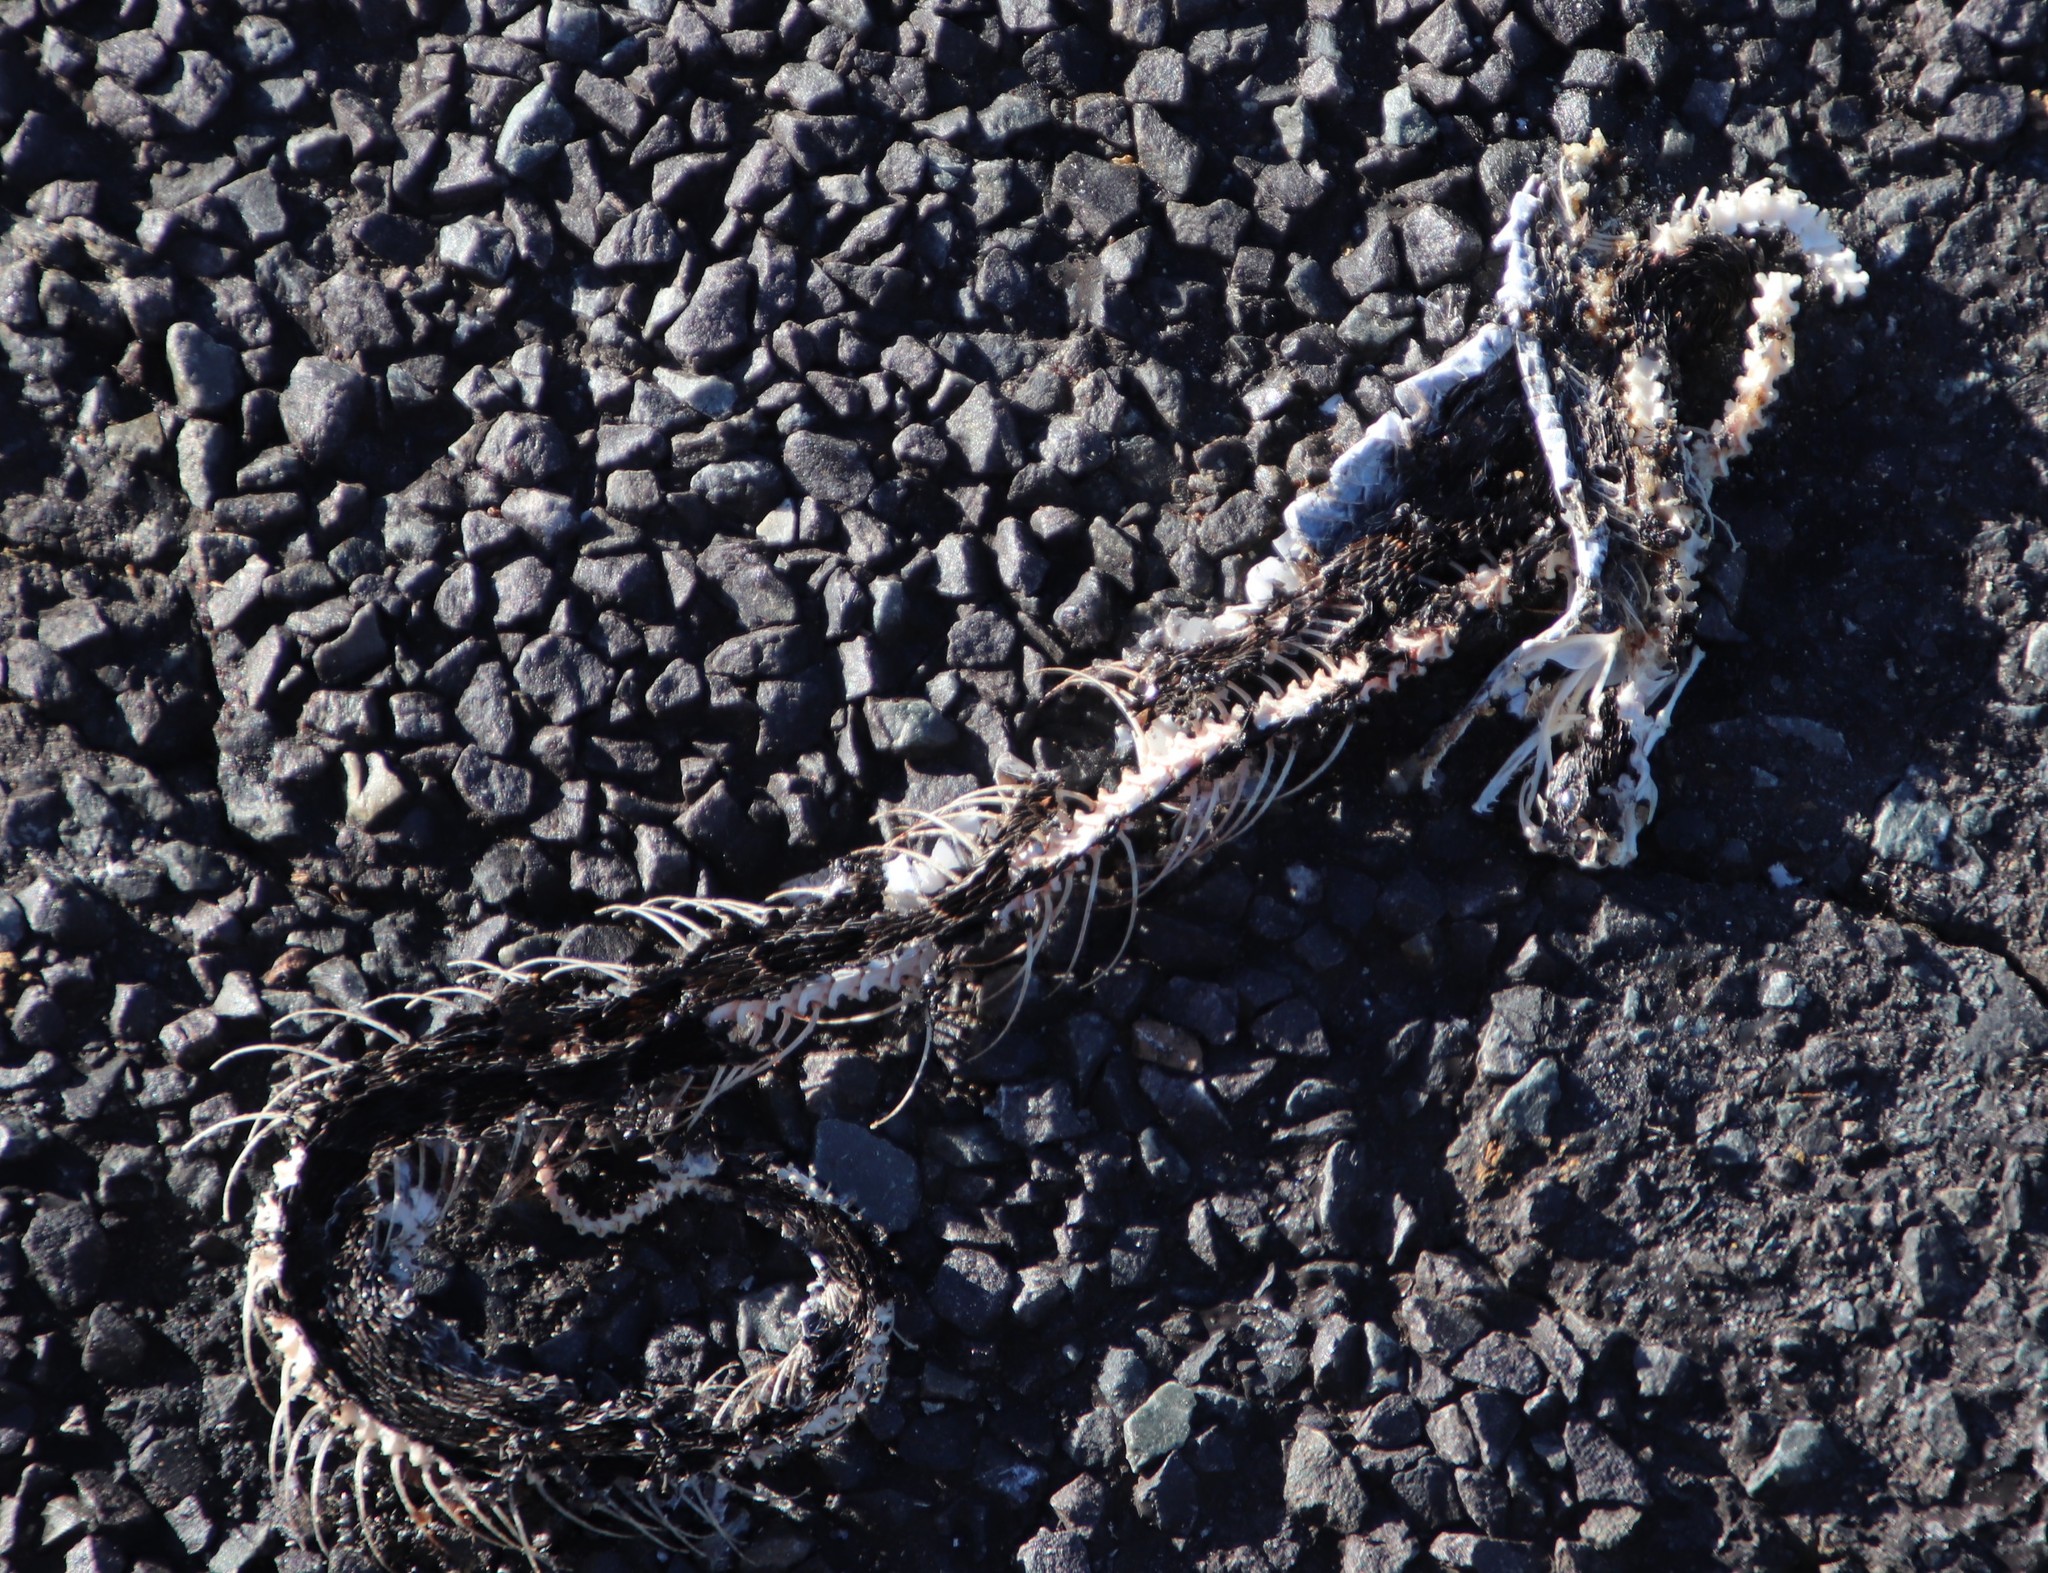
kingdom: Animalia
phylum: Arthropoda
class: Insecta
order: Hymenoptera
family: Formicidae
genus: Crematogaster
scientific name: Crematogaster peringueyi
